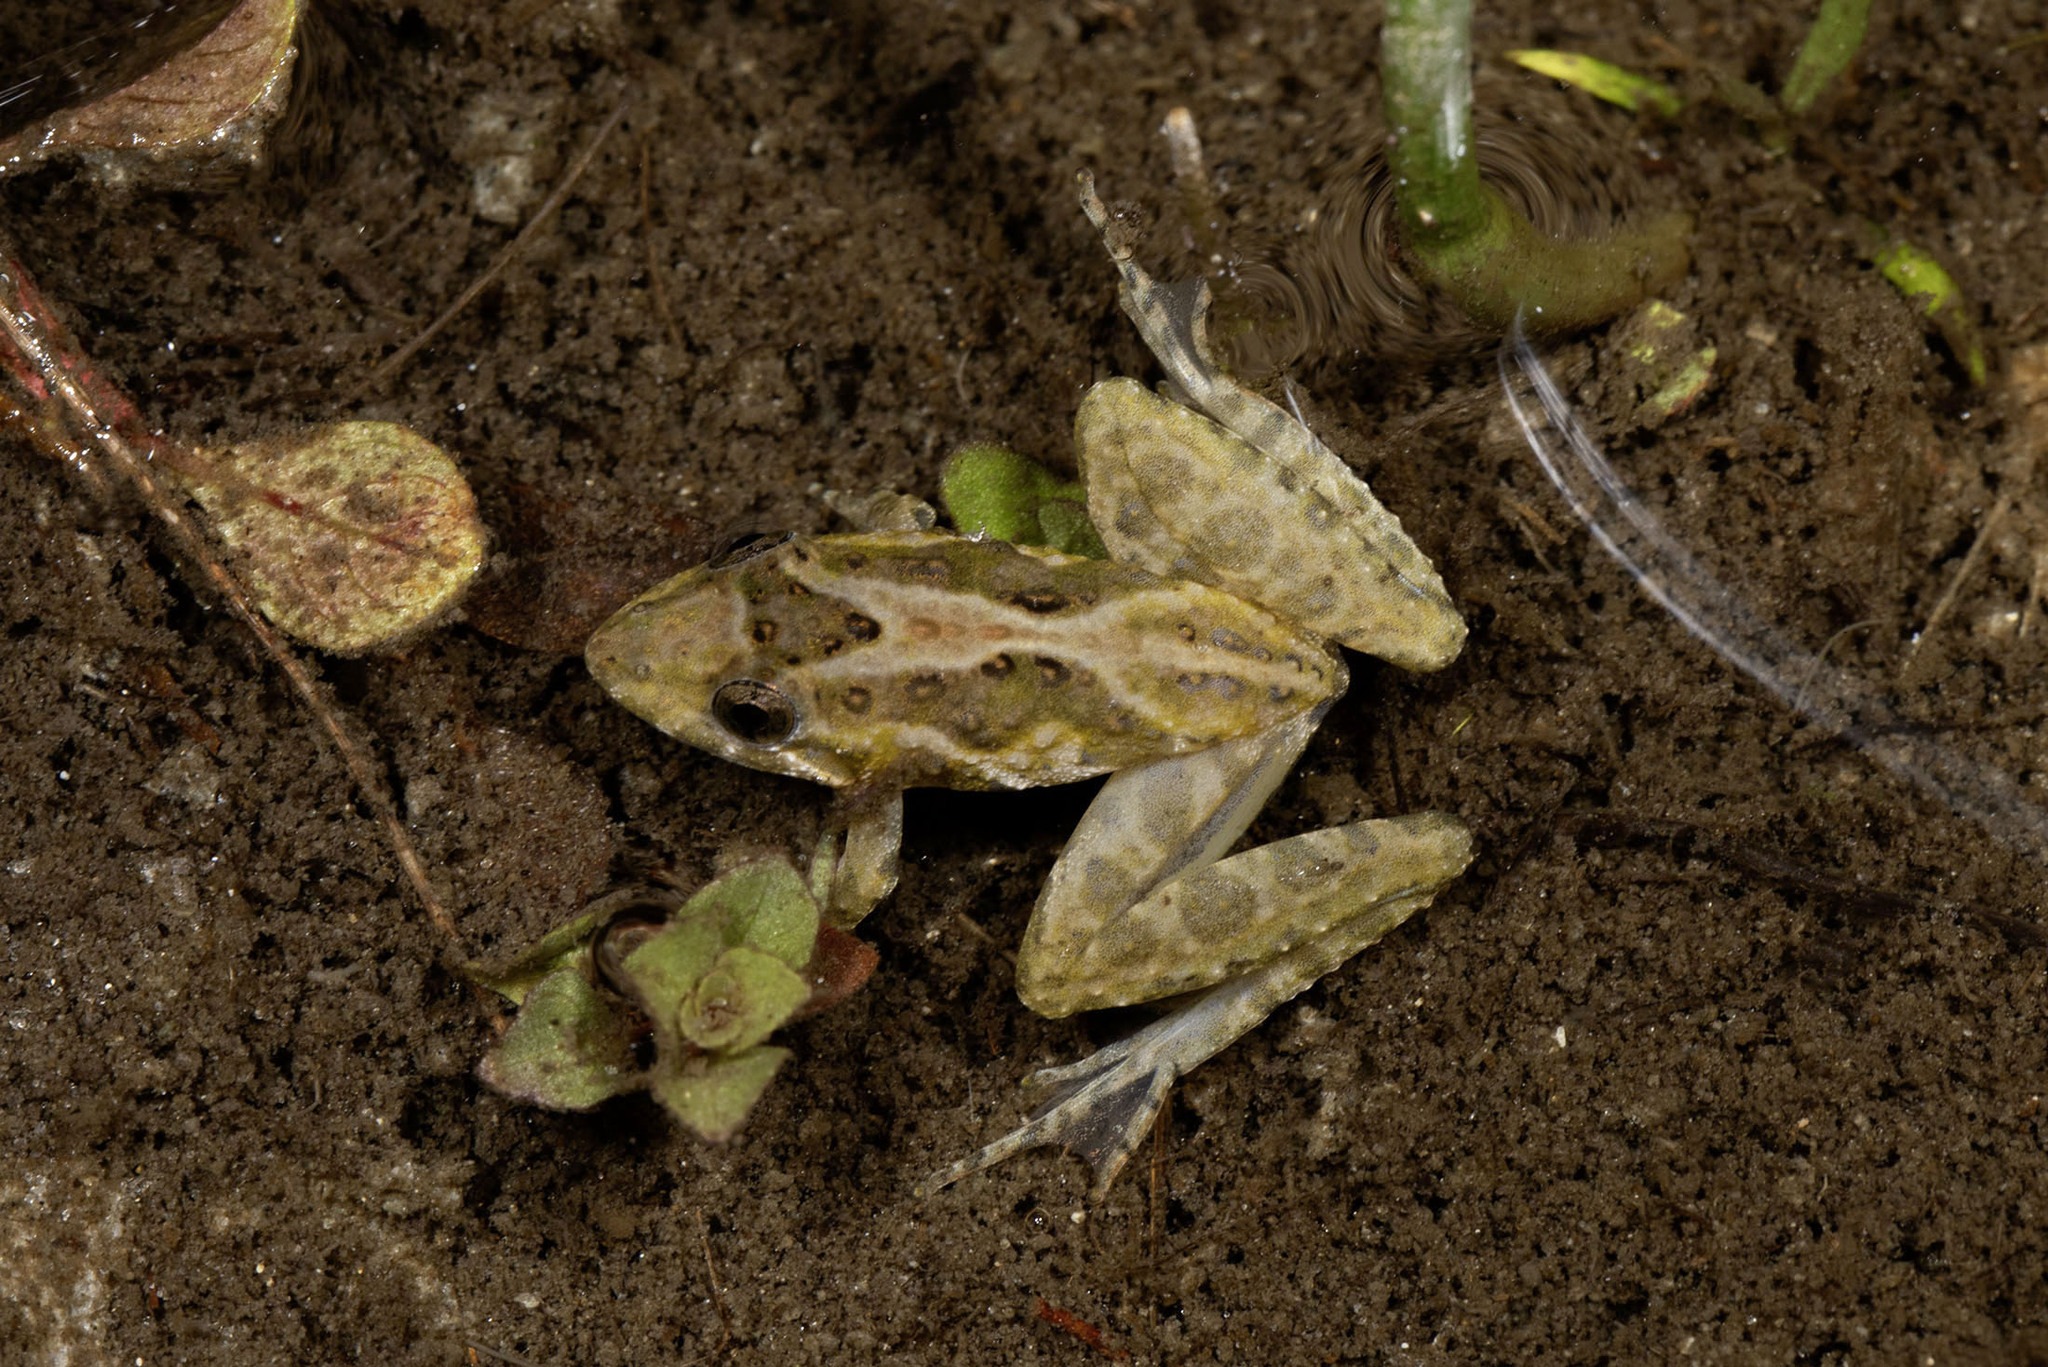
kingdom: Animalia
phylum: Chordata
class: Amphibia
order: Anura
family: Hylidae
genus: Acris
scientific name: Acris gryllus
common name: Southern cricket frog
